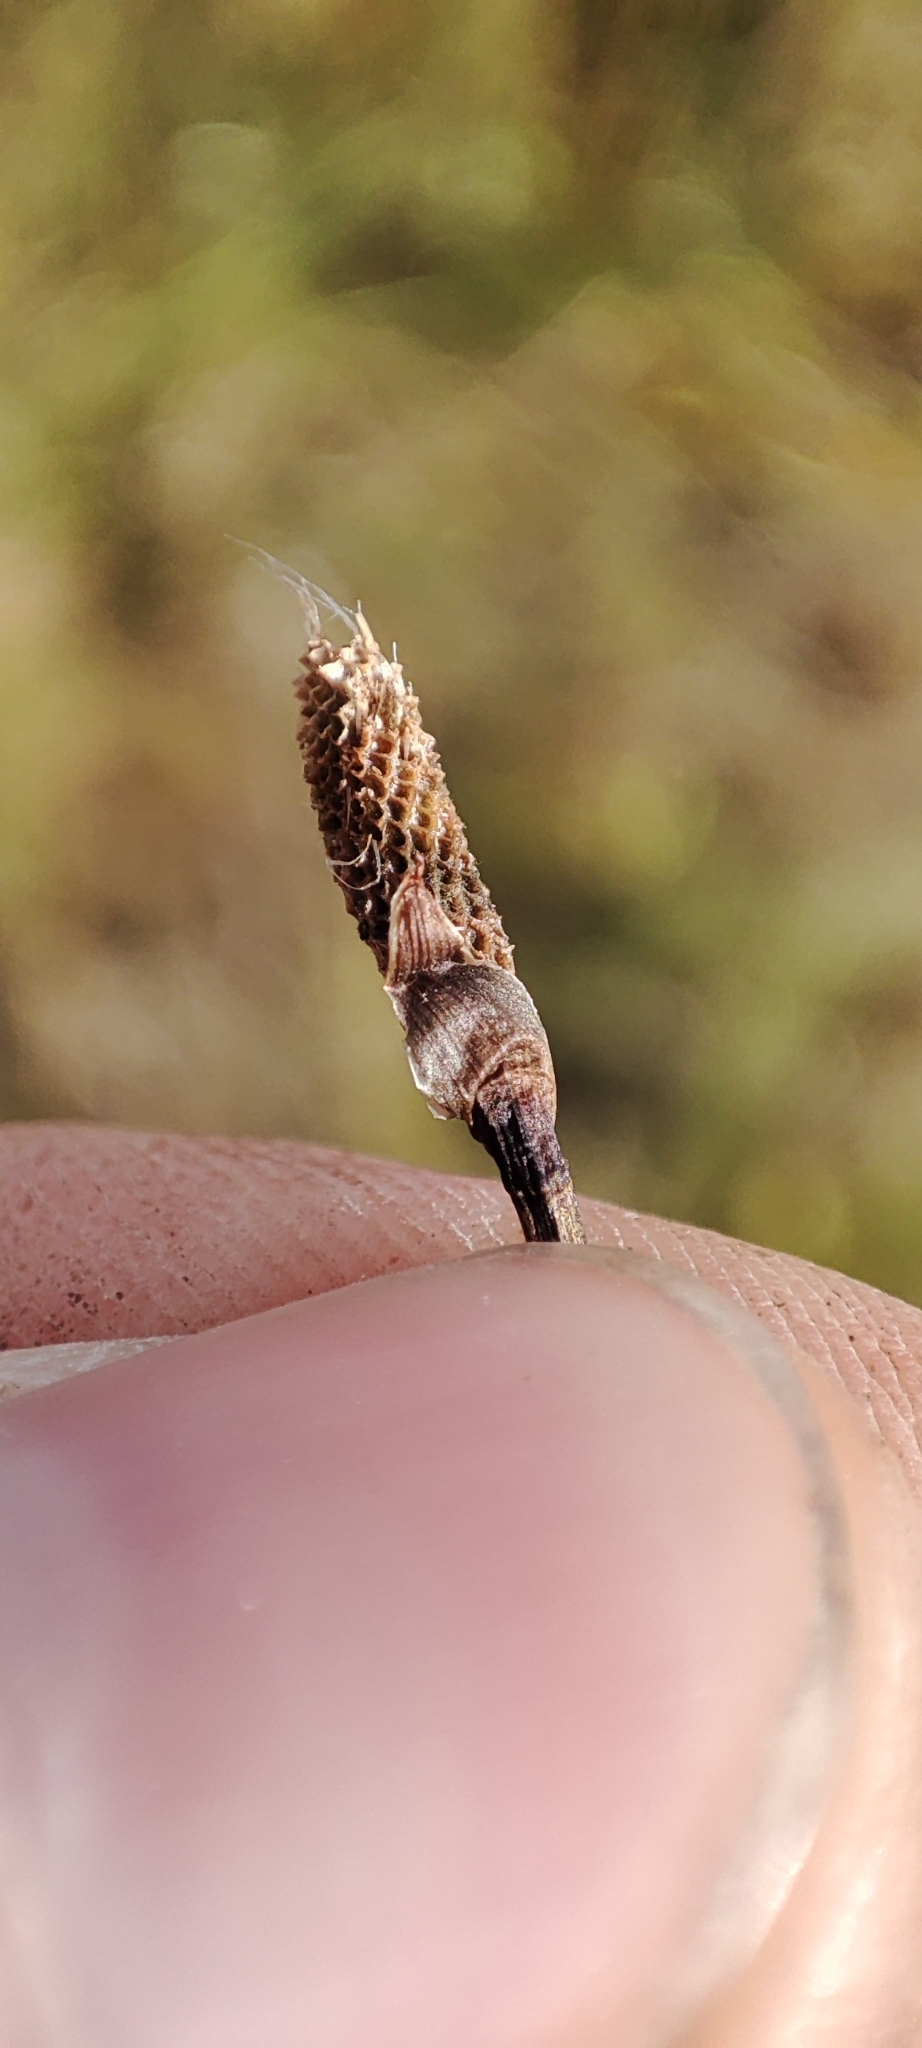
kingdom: Plantae
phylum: Tracheophyta
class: Liliopsida
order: Poales
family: Cyperaceae
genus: Eriophorum
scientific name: Eriophorum scheuchzeri
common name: Scheuchzer's cottongrass
